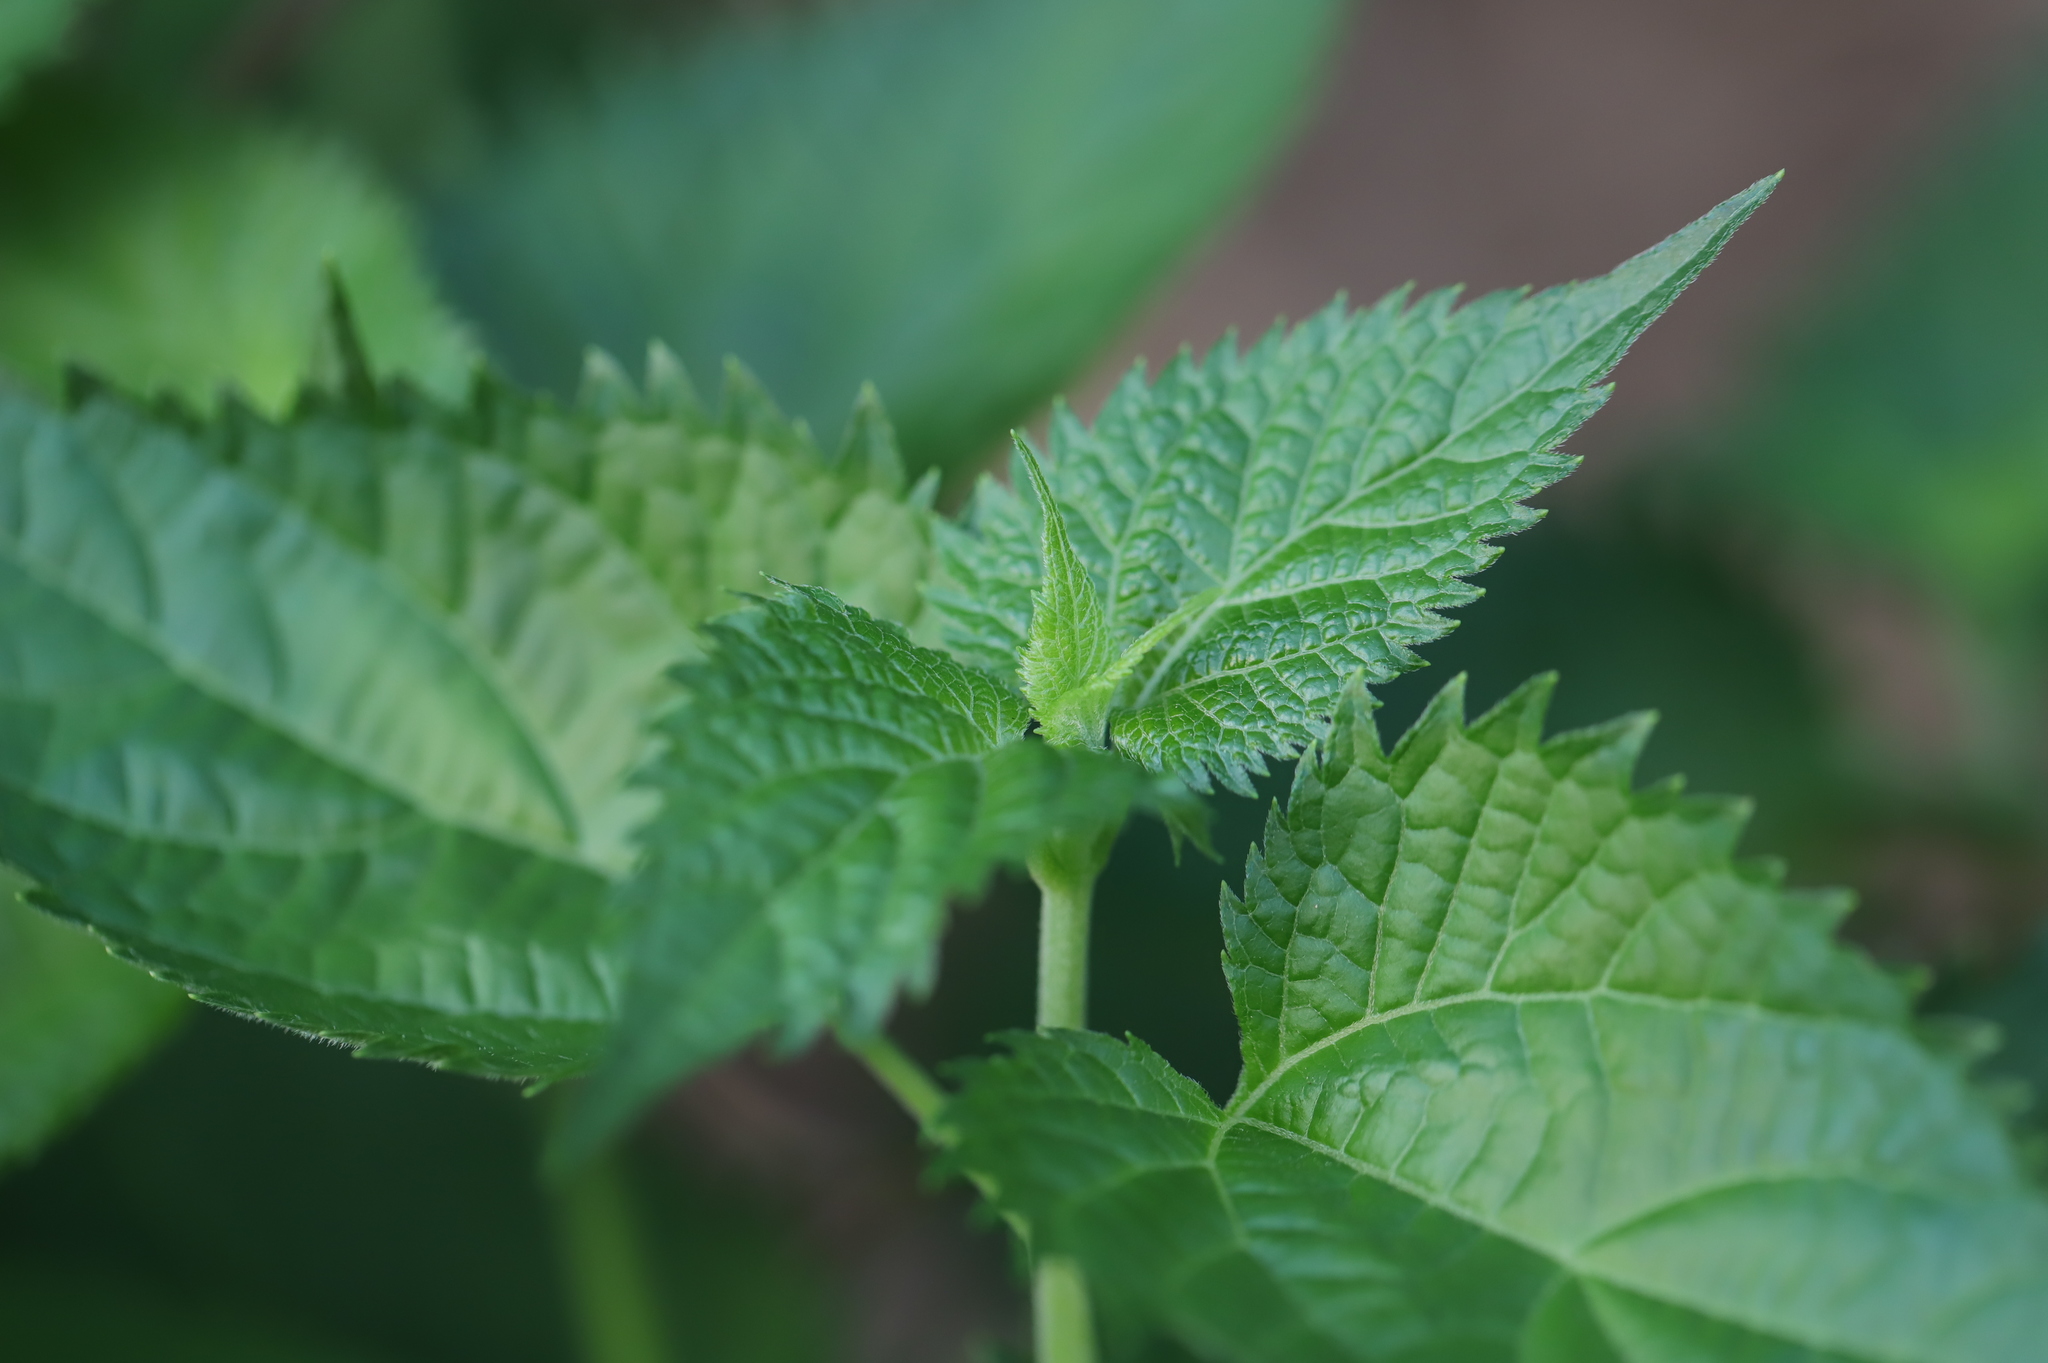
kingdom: Plantae
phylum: Tracheophyta
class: Magnoliopsida
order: Asterales
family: Asteraceae
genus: Ageratina
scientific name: Ageratina altissima
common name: White snakeroot
